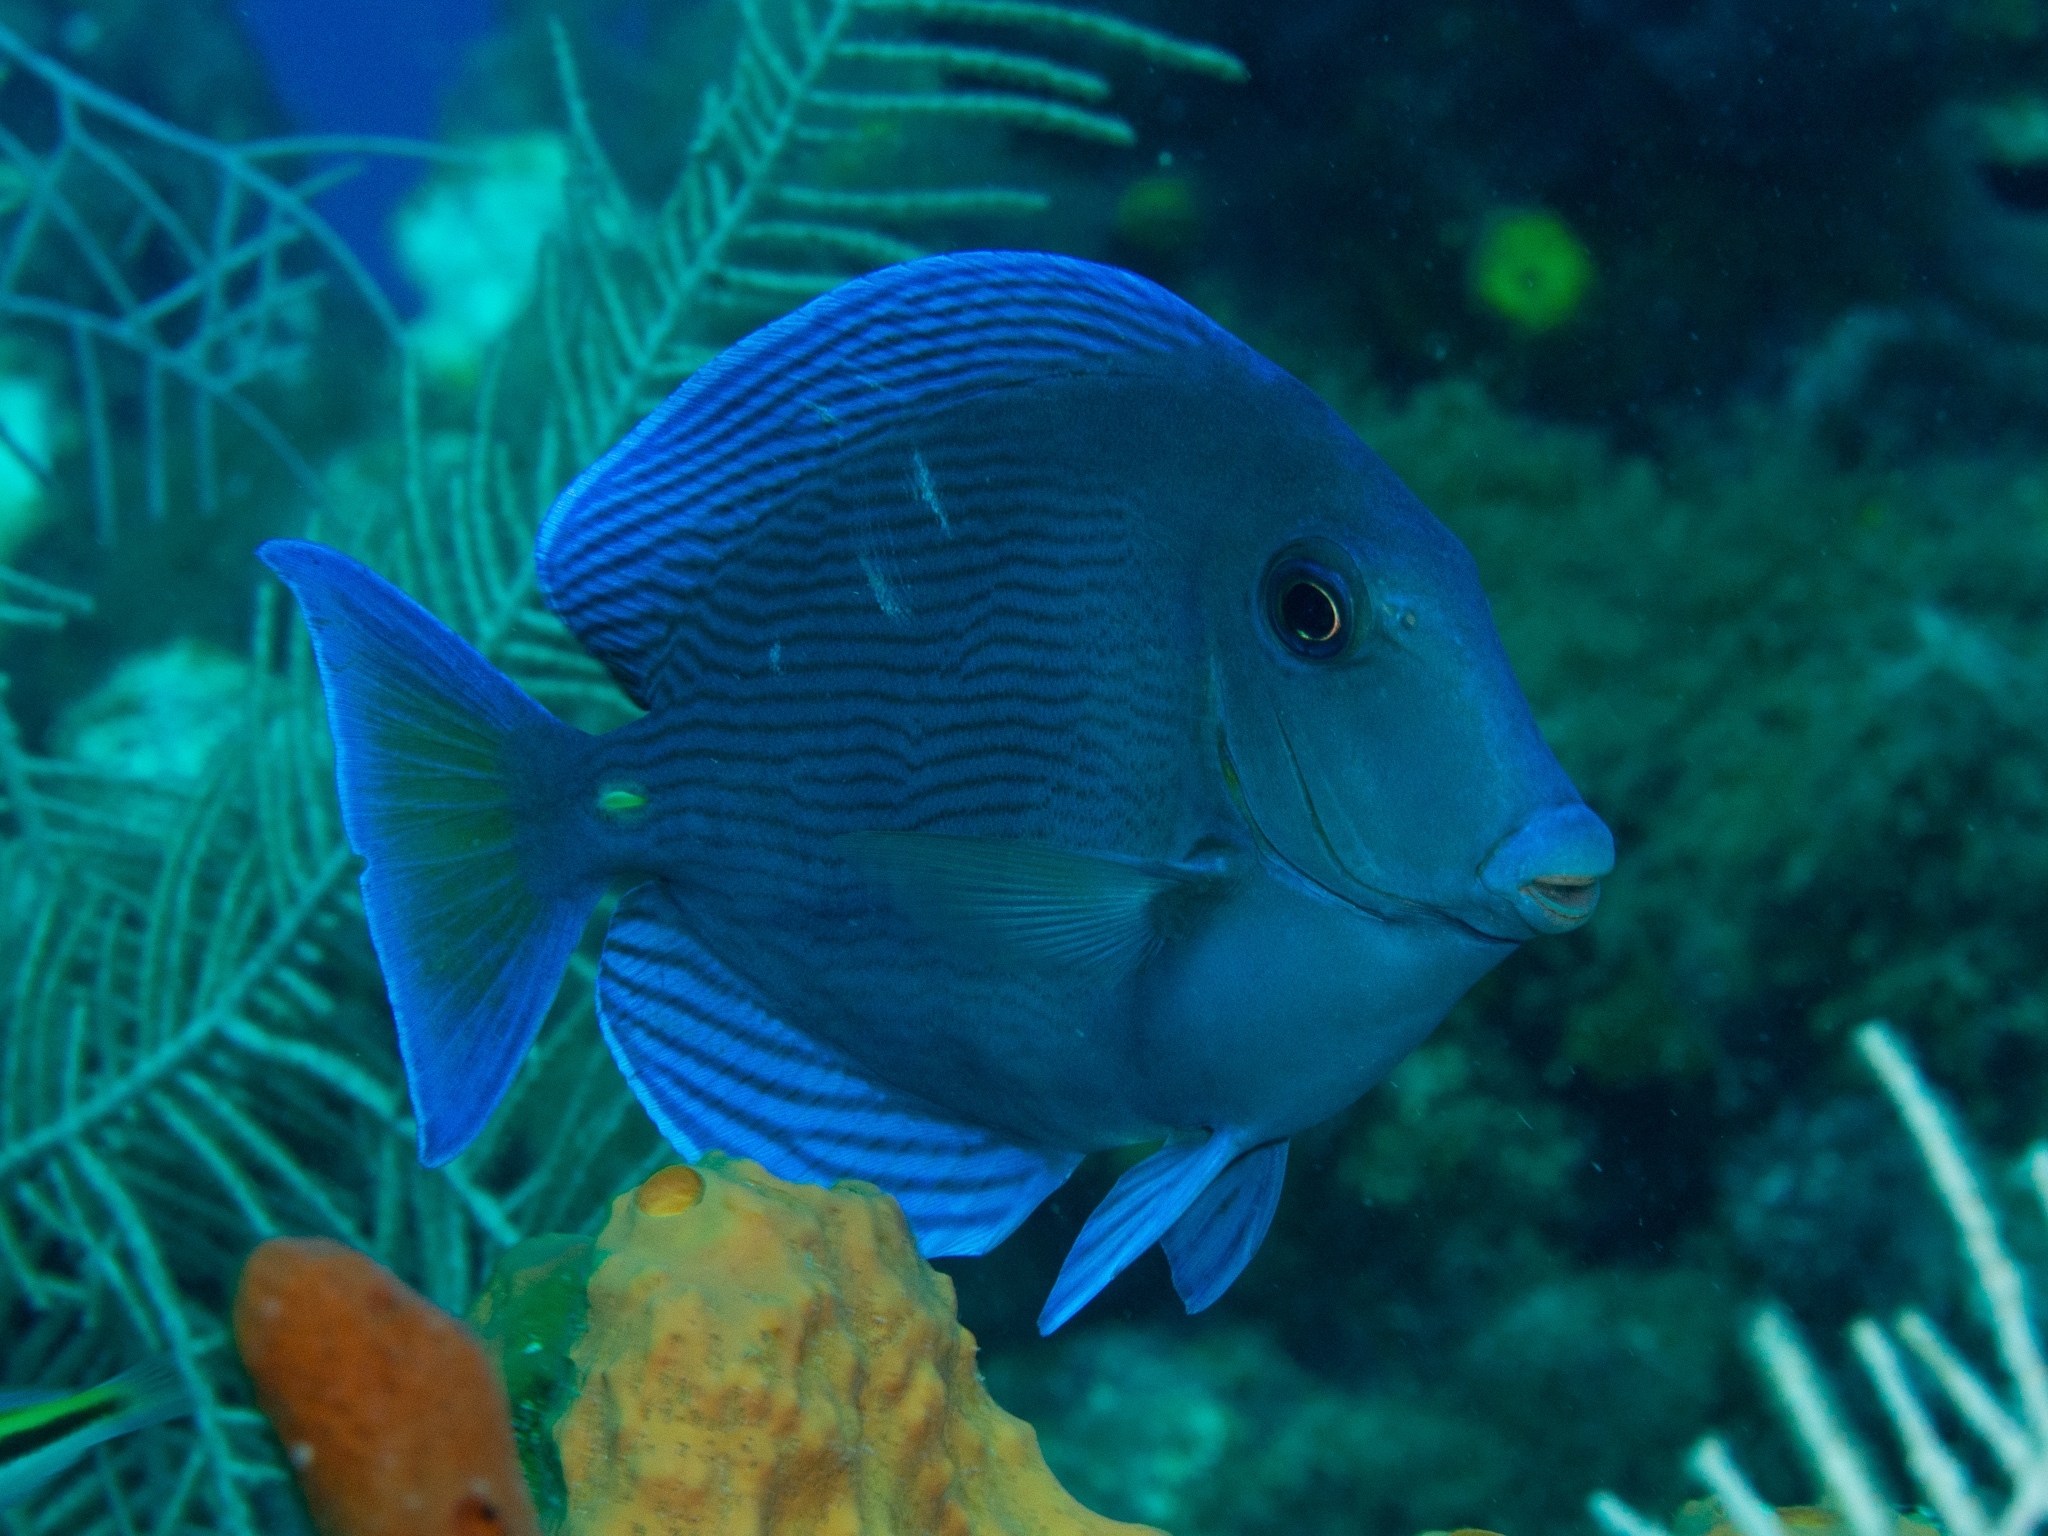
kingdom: Animalia
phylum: Chordata
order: Perciformes
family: Acanthuridae
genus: Acanthurus
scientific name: Acanthurus coeruleus
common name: Blue tang
